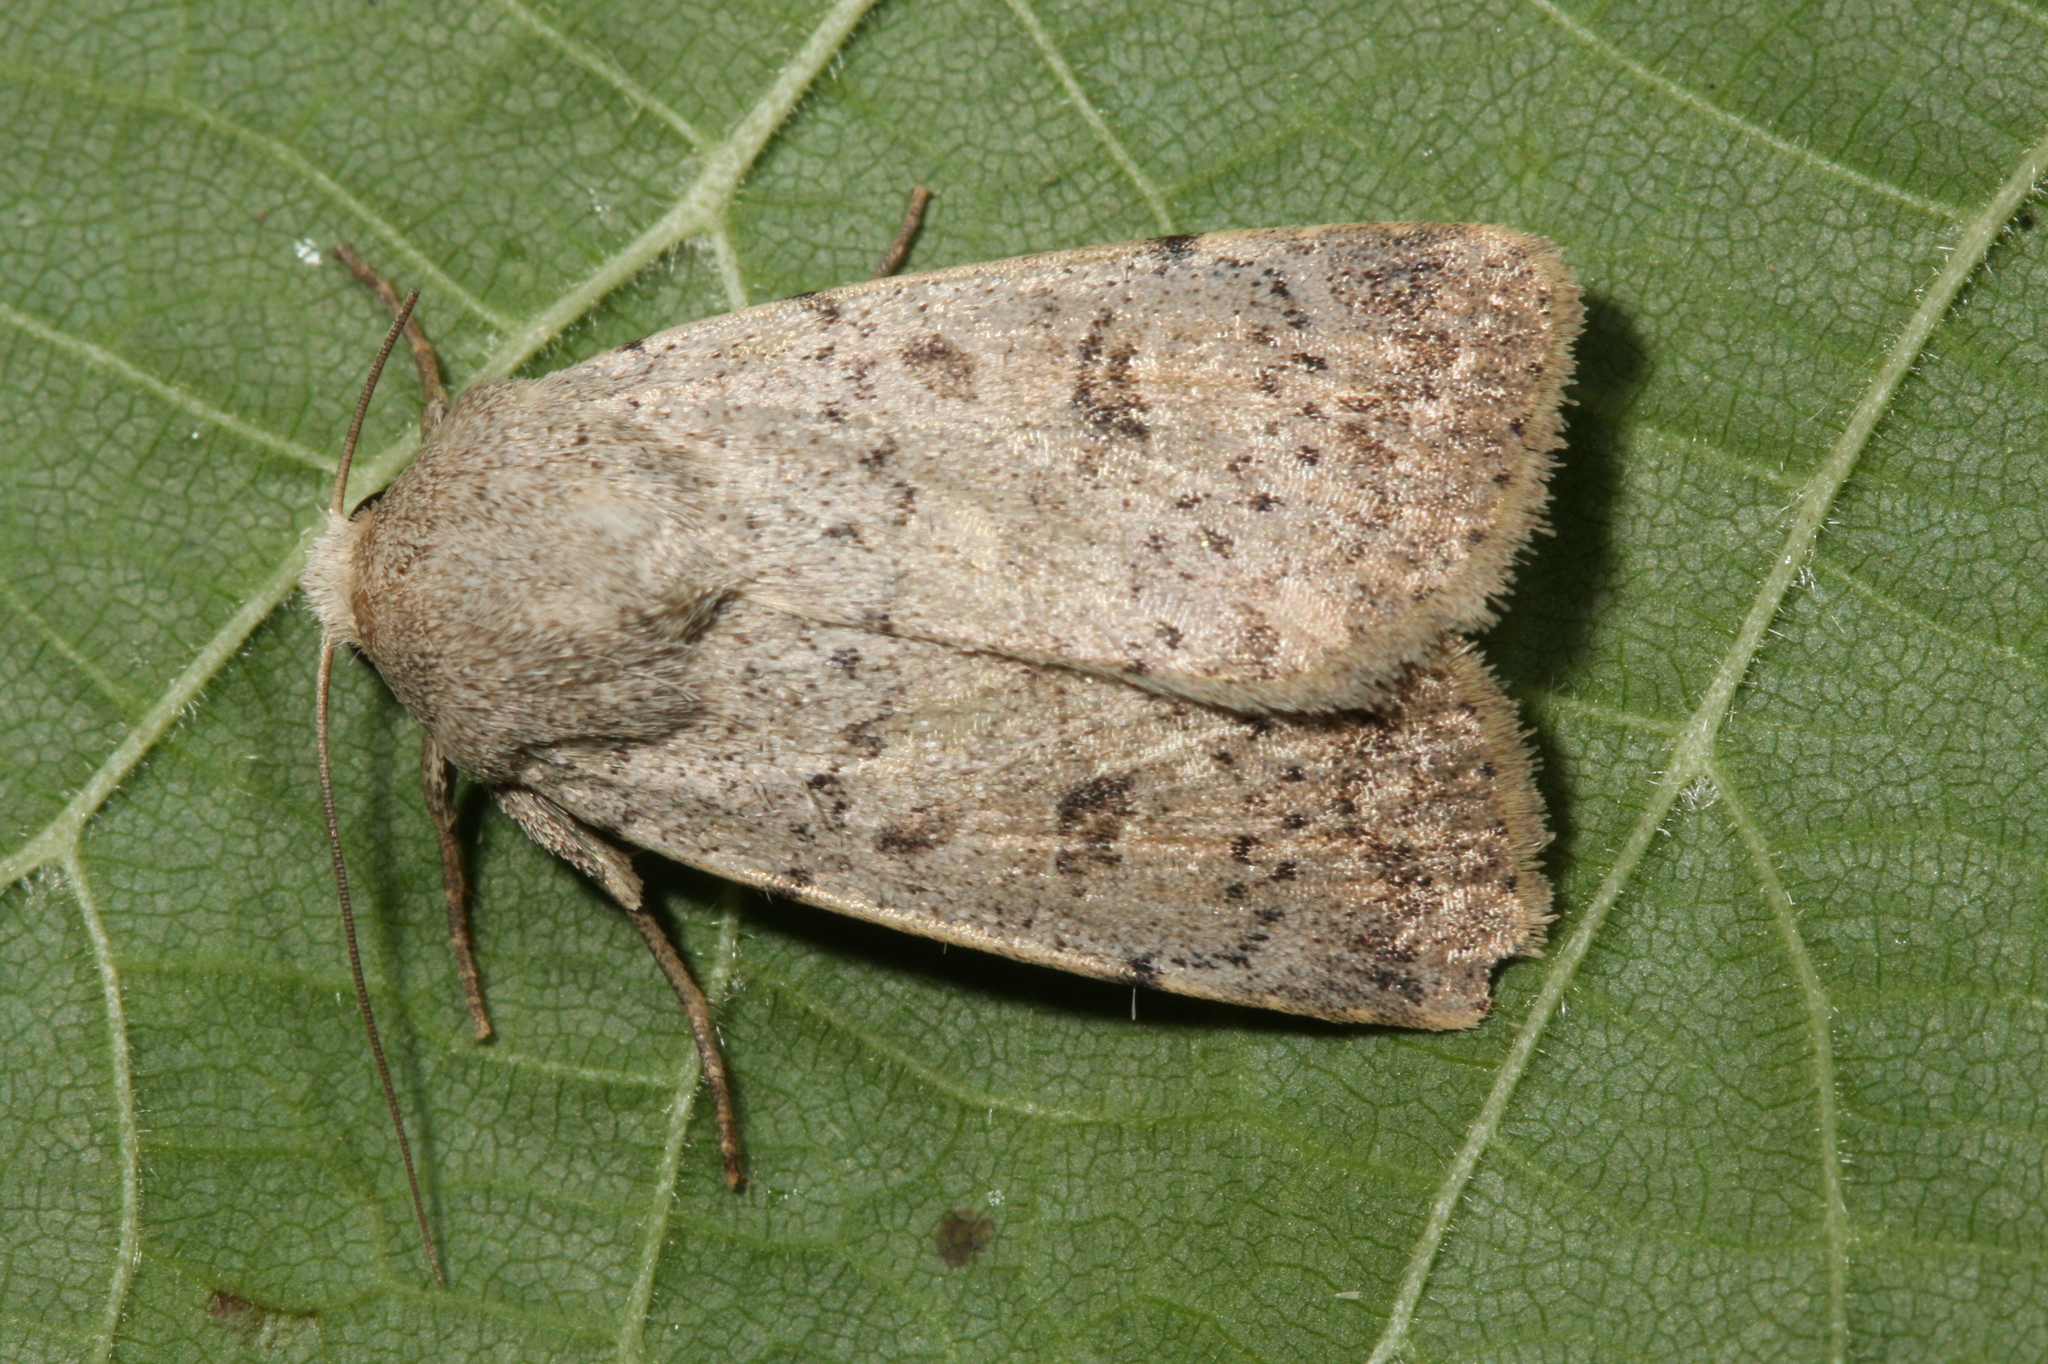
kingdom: Animalia
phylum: Arthropoda
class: Insecta
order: Lepidoptera
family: Noctuidae
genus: Hoplodrina
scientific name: Hoplodrina respersa
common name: Sprinkled rustic
